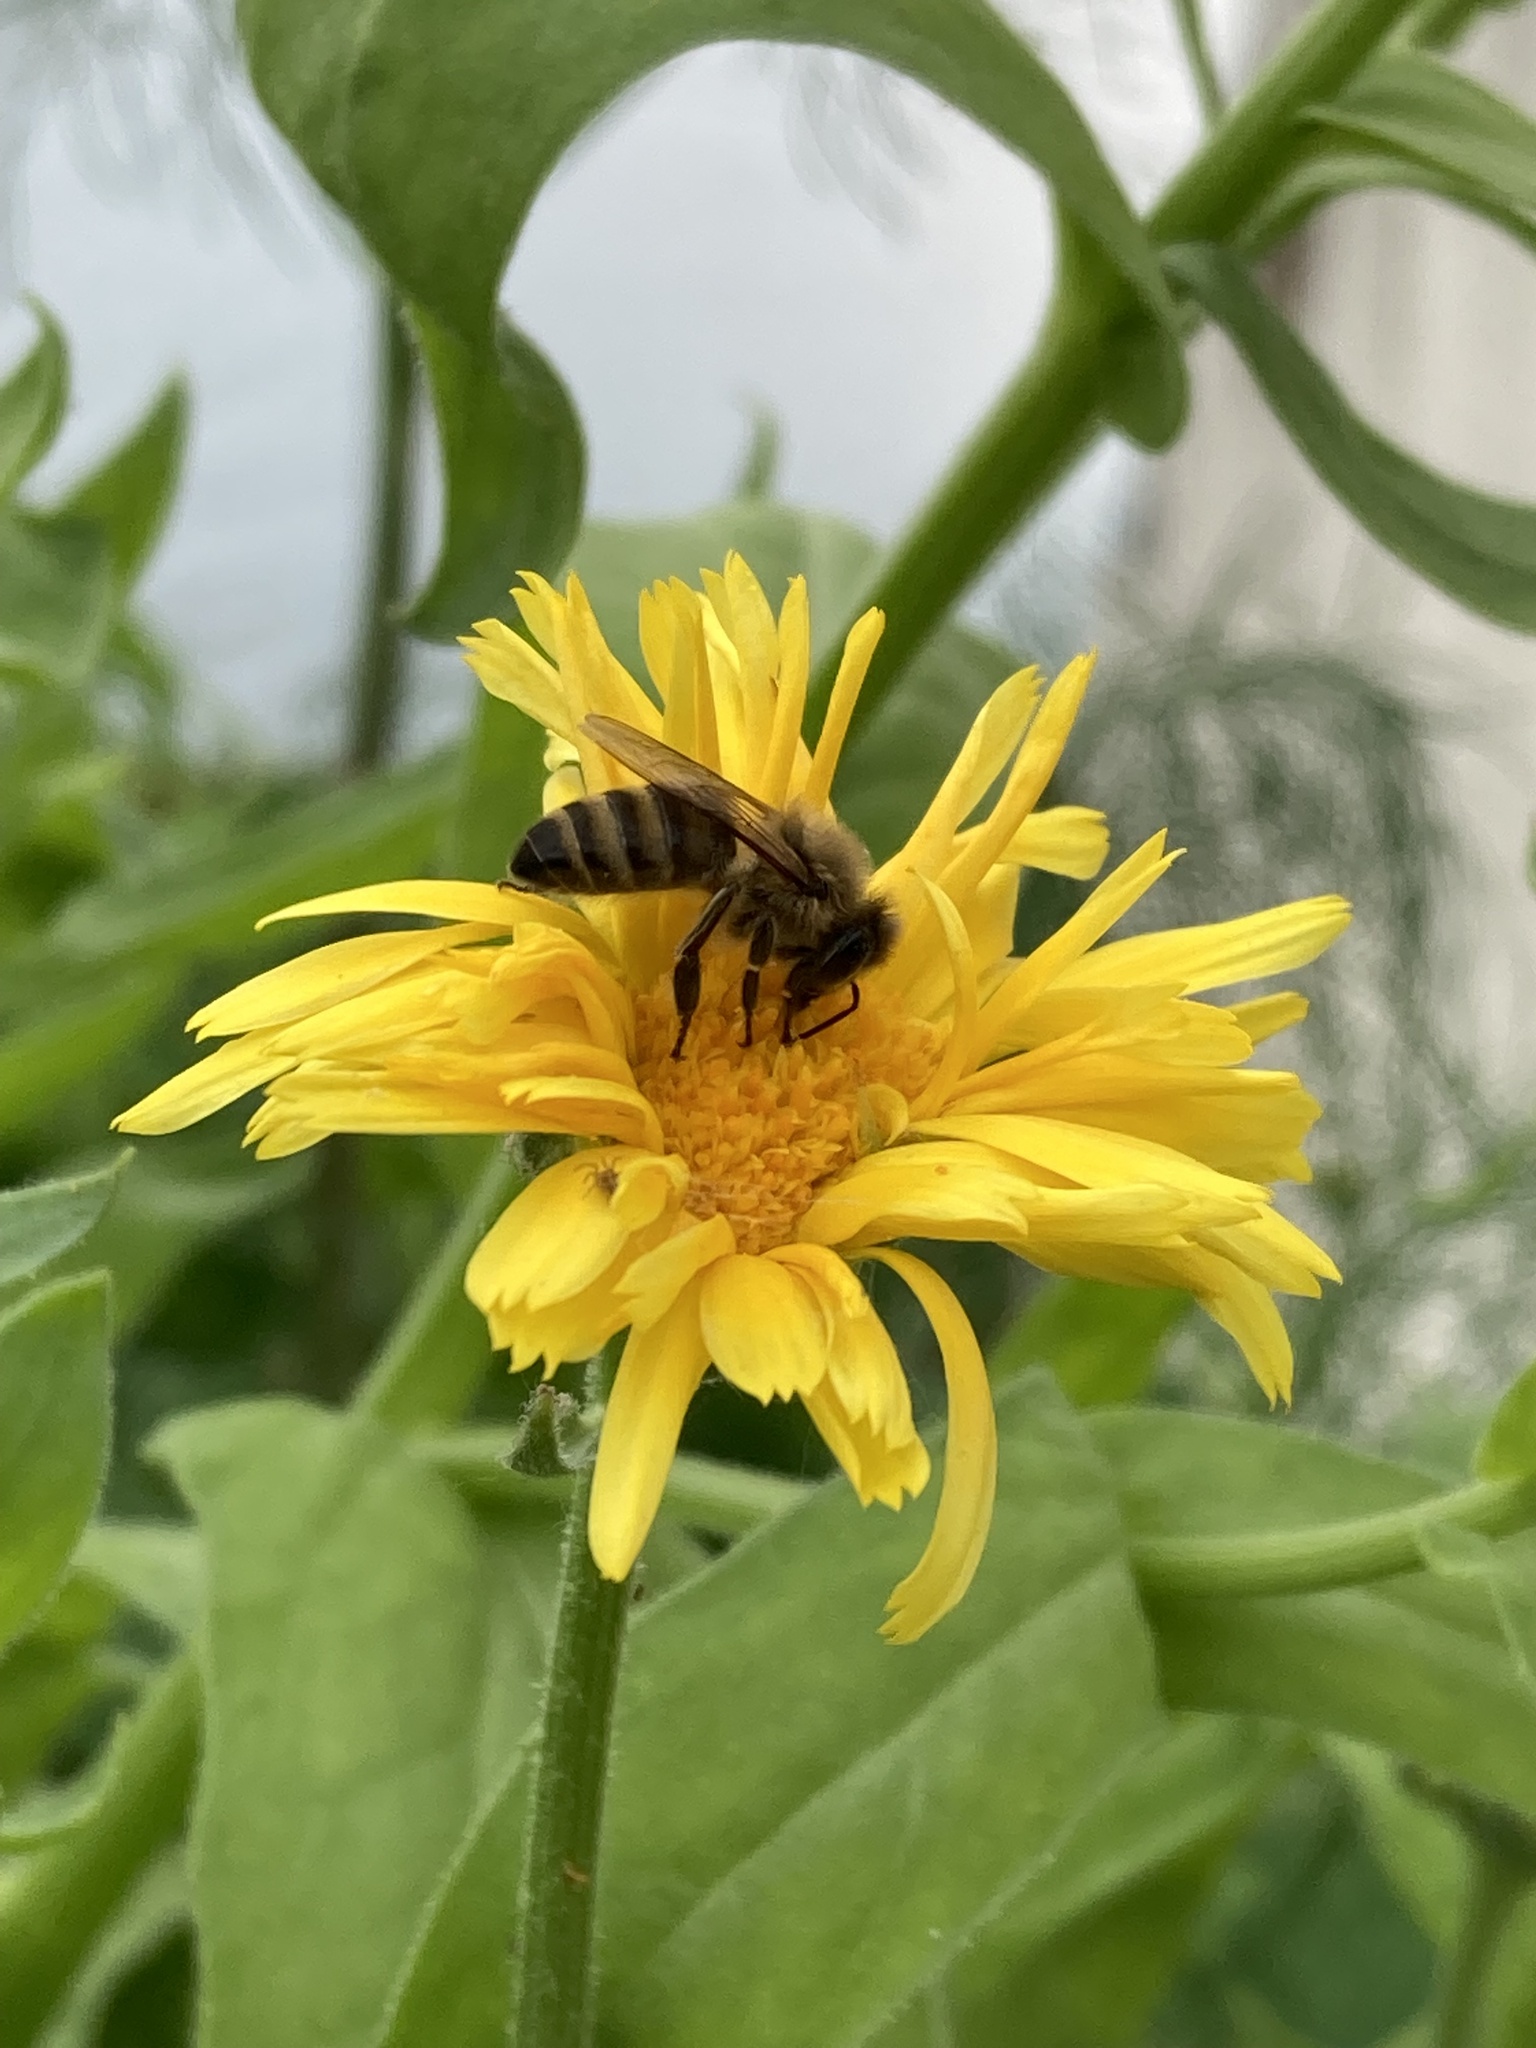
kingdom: Animalia
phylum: Arthropoda
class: Insecta
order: Hymenoptera
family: Apidae
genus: Apis
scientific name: Apis mellifera
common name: Honey bee
